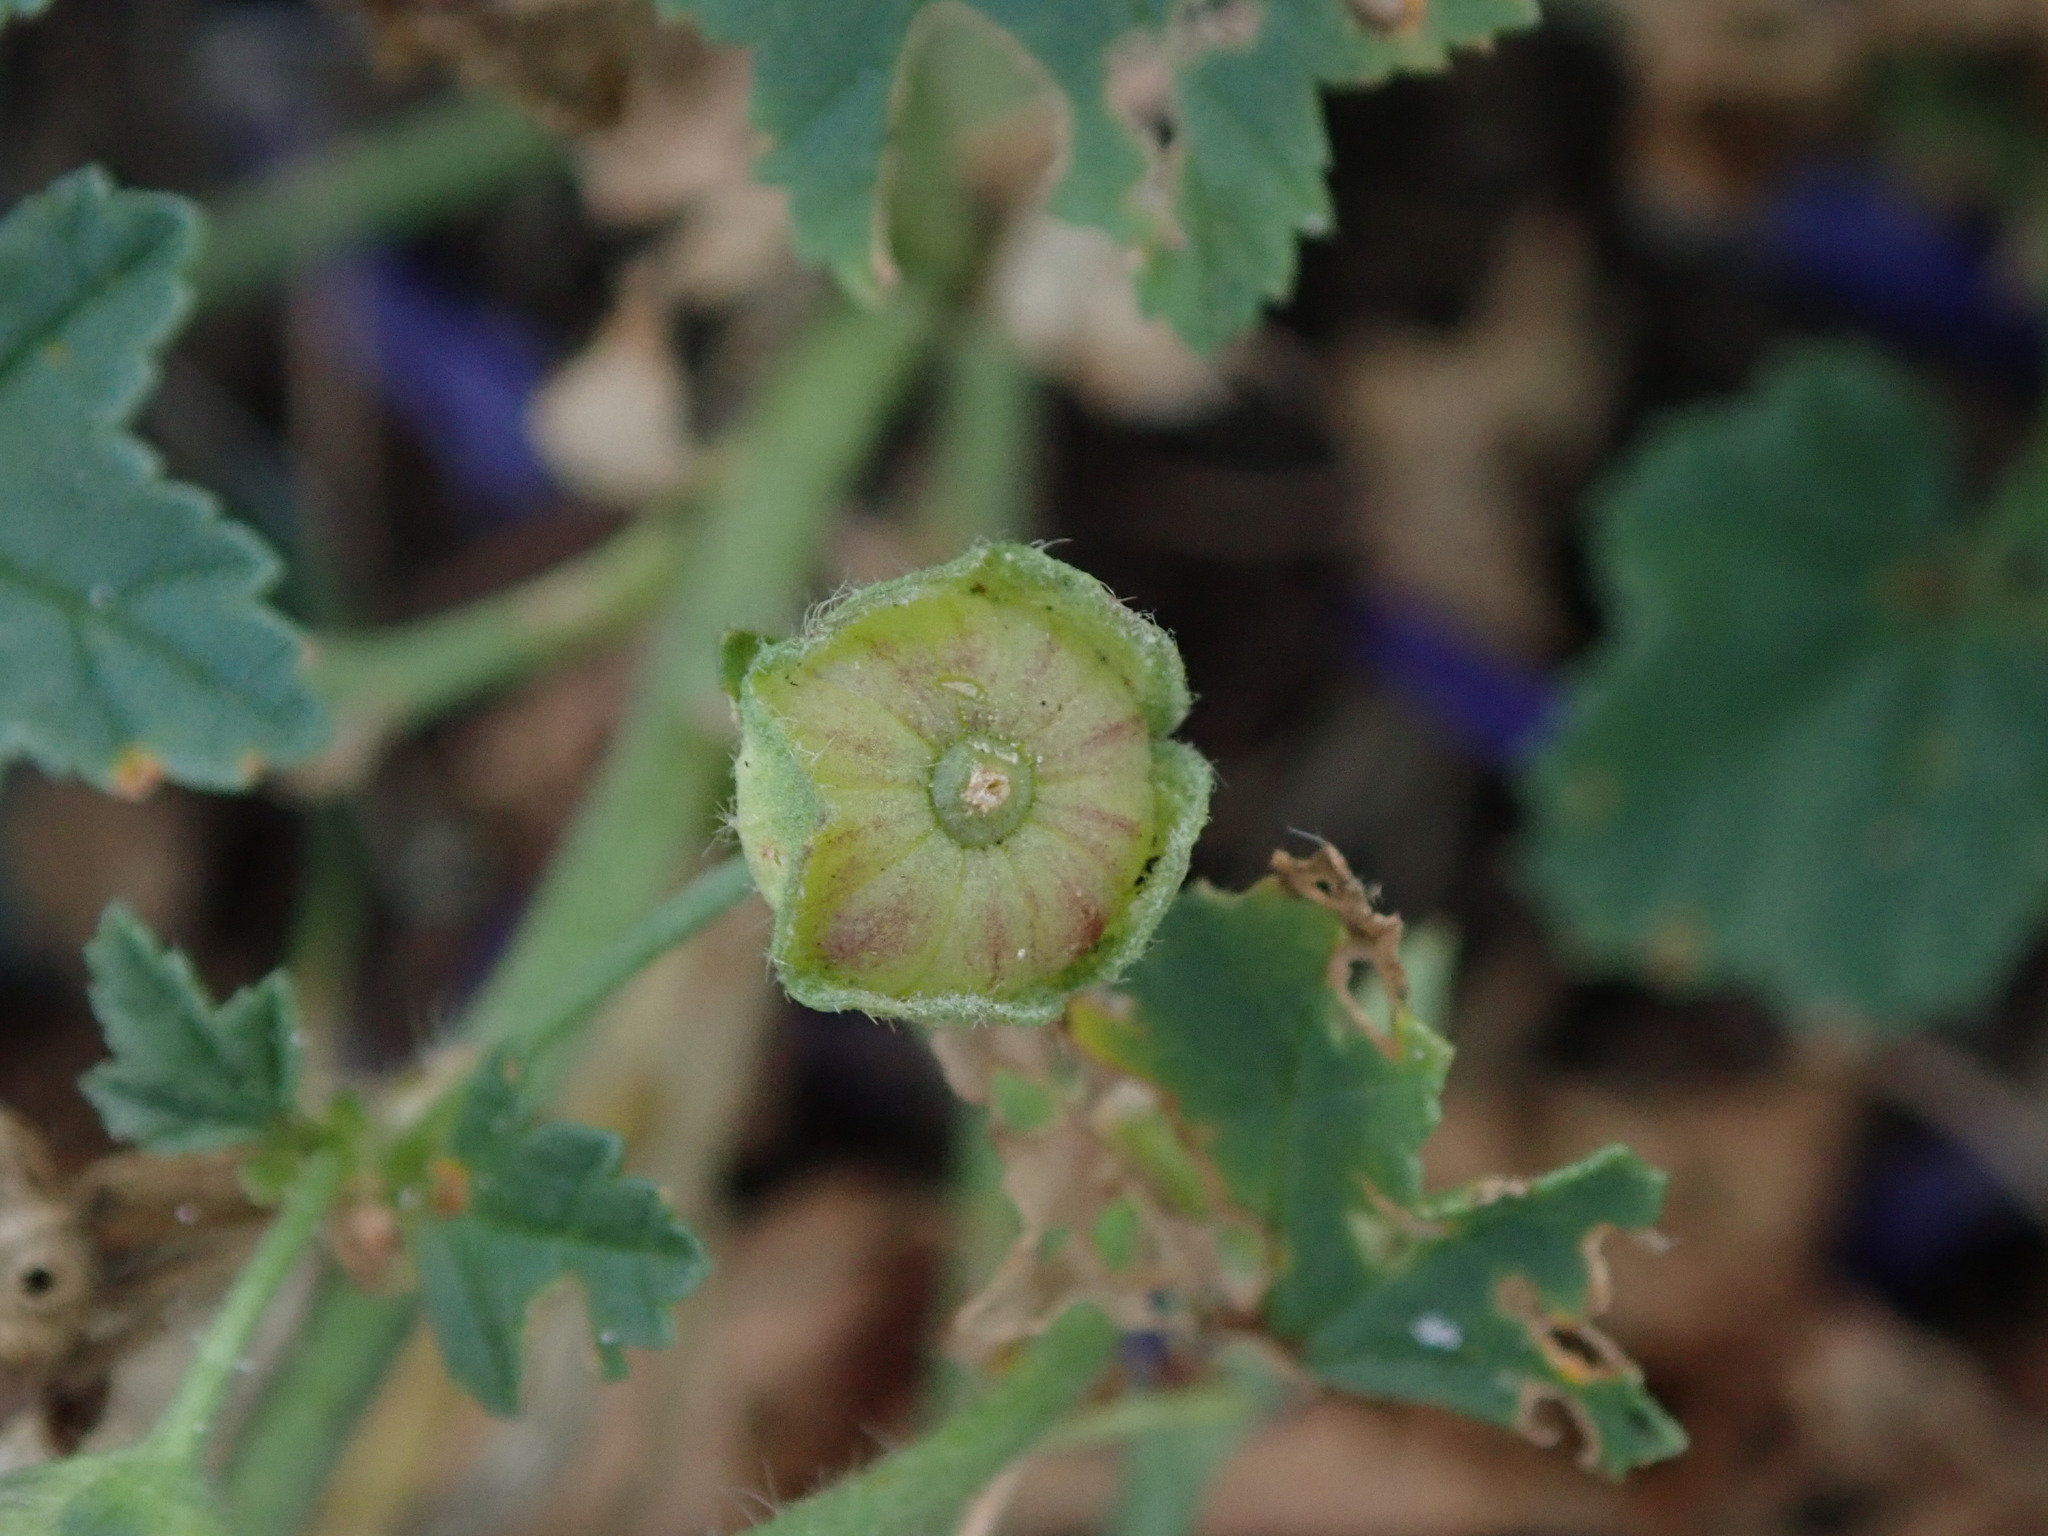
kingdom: Plantae
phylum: Tracheophyta
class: Magnoliopsida
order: Malvales
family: Malvaceae
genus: Malva
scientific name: Malva sylvestris
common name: Common mallow
